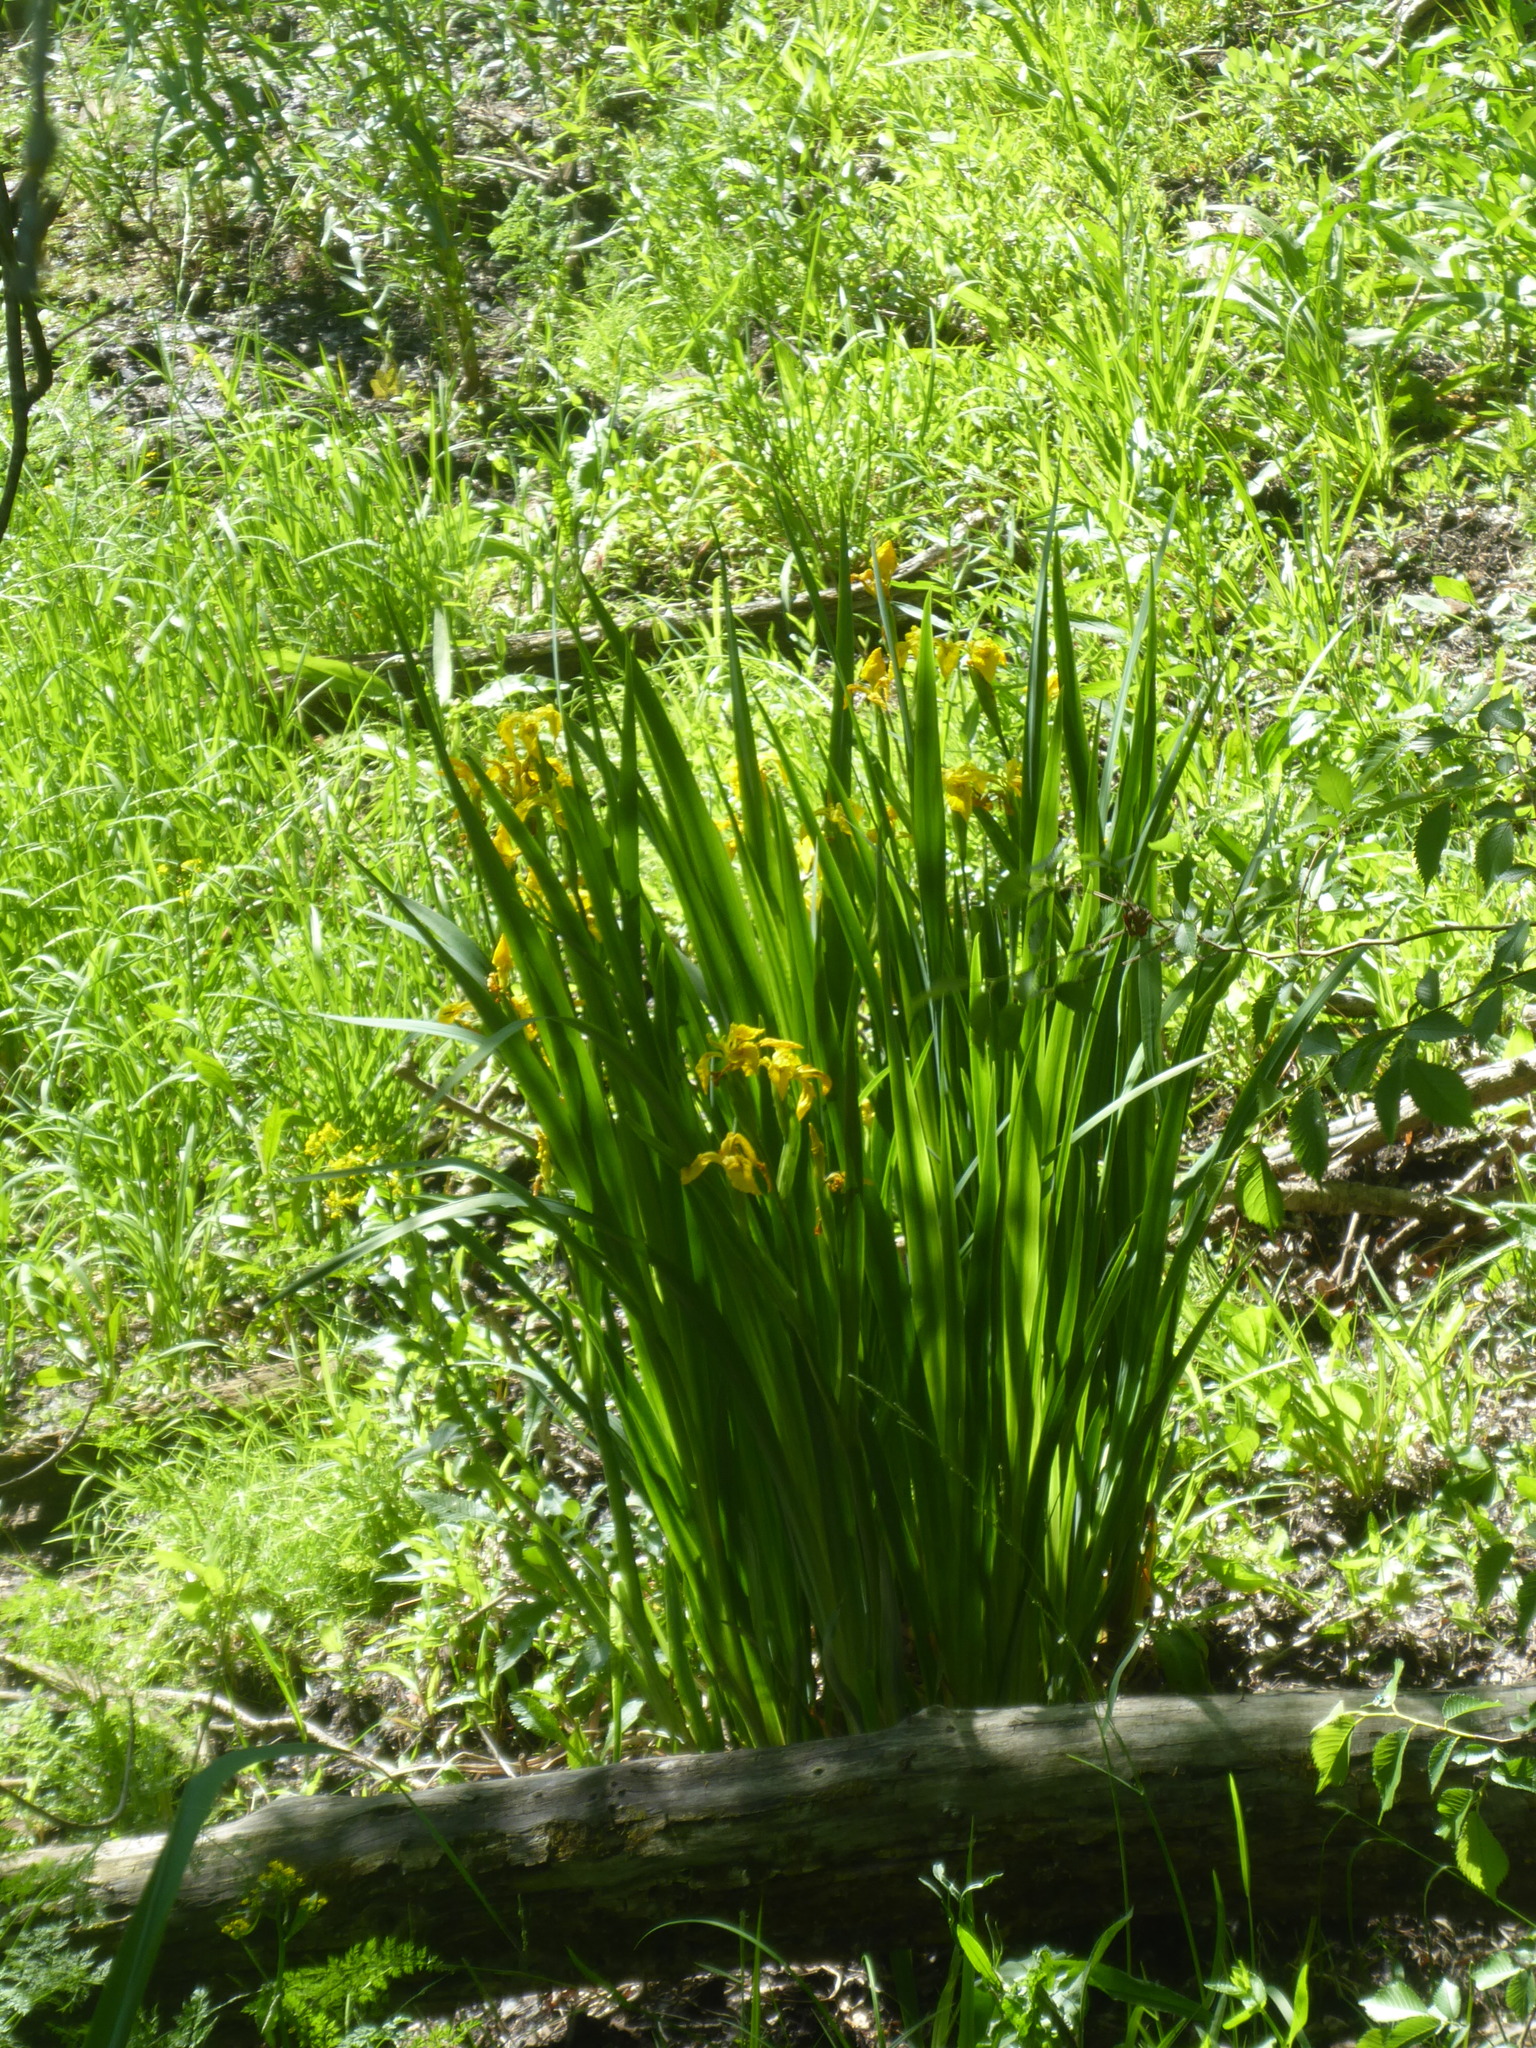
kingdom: Plantae
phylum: Tracheophyta
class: Liliopsida
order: Asparagales
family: Iridaceae
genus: Iris
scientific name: Iris pseudacorus
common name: Yellow flag
